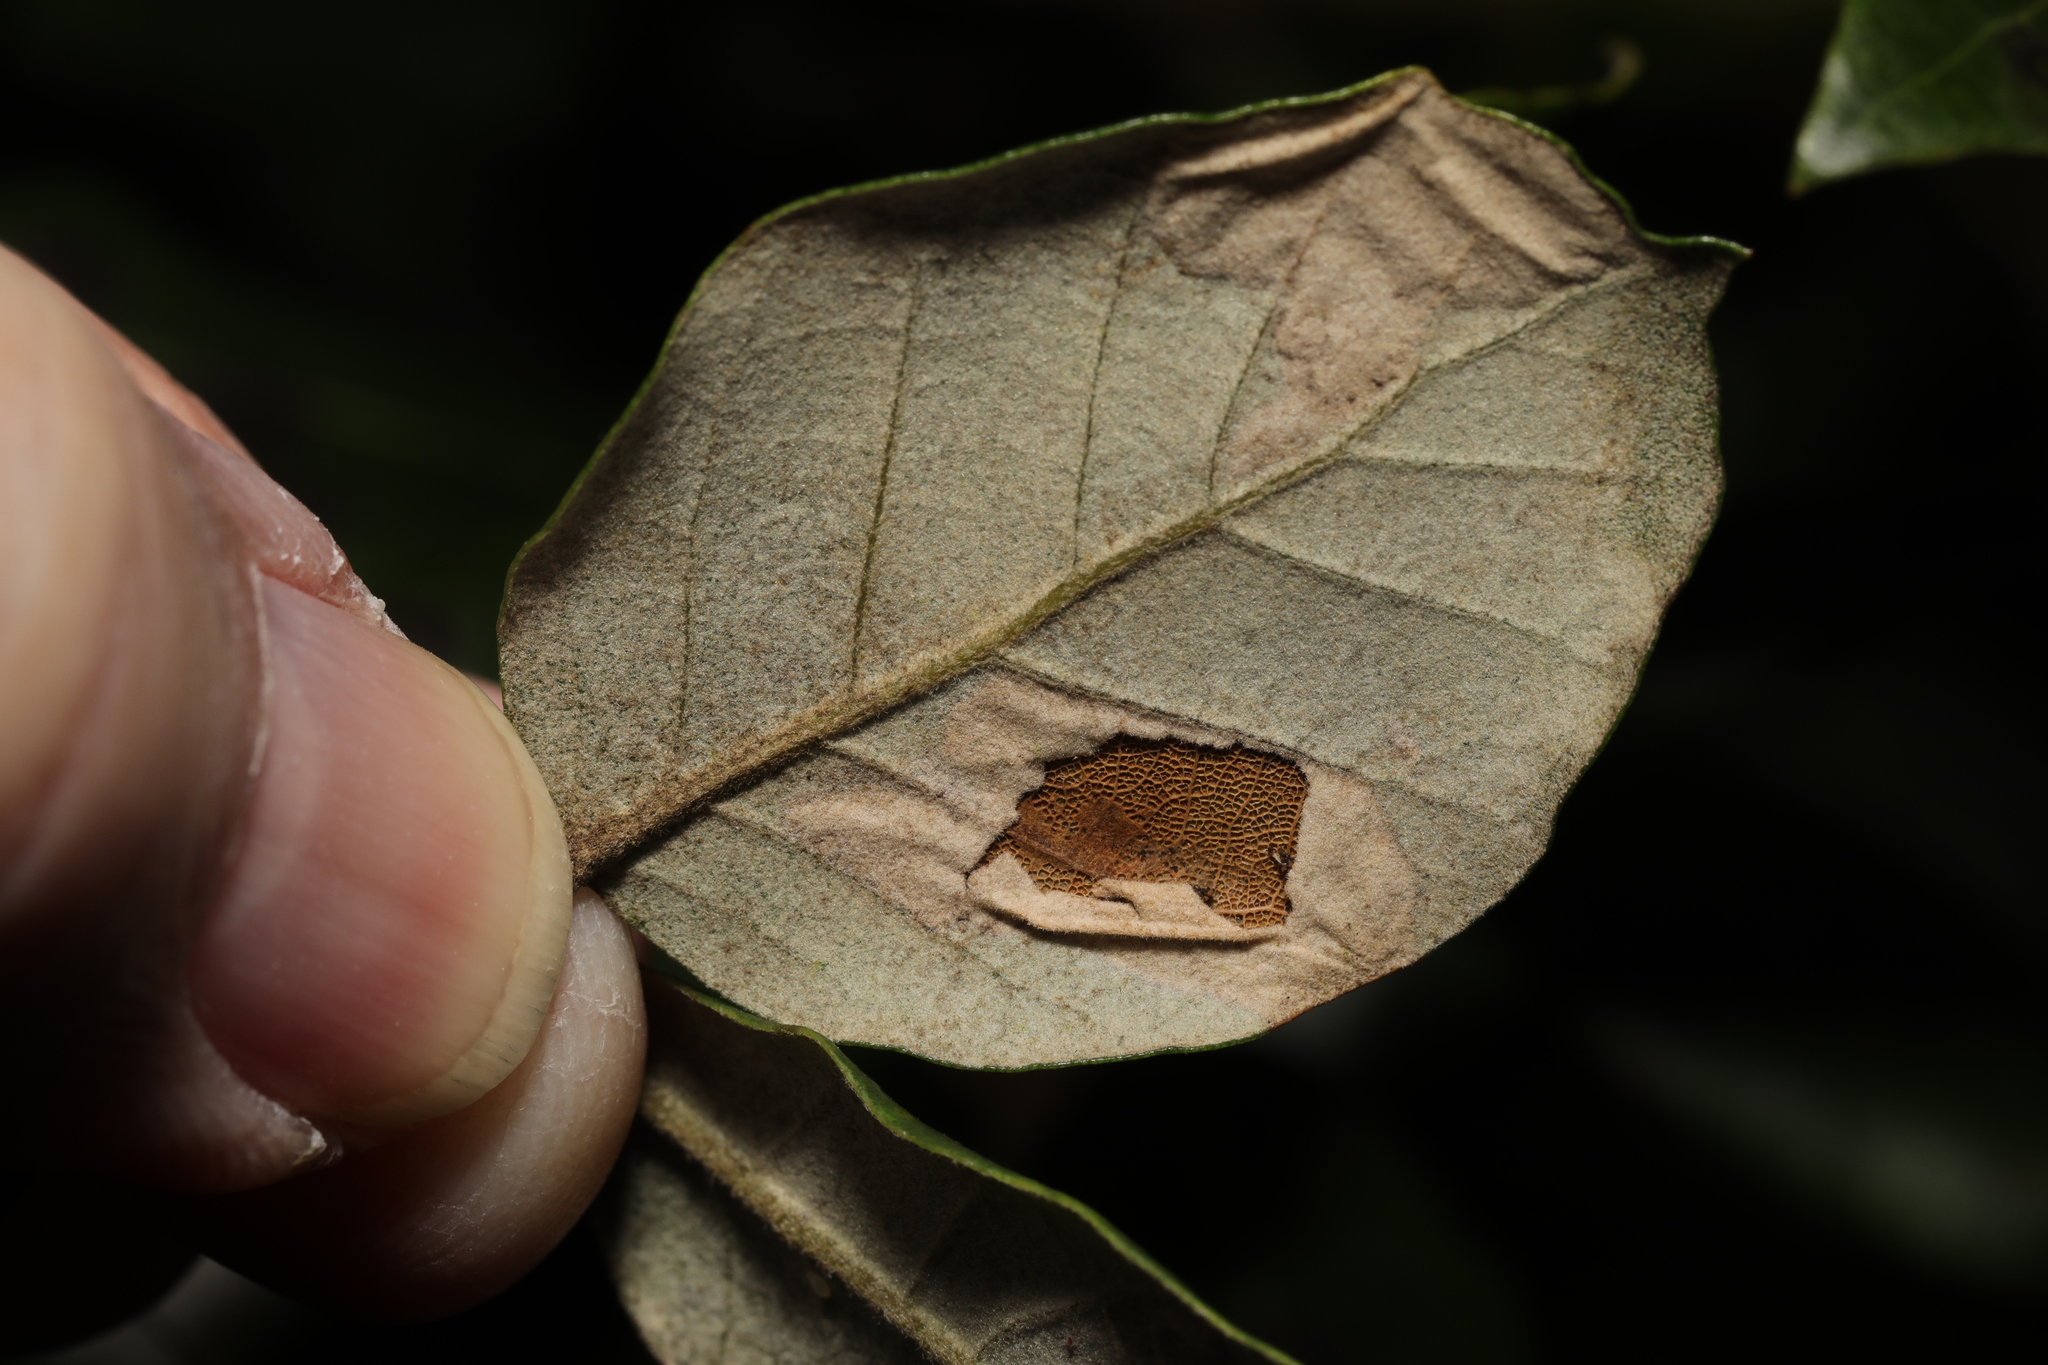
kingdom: Animalia
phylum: Arthropoda
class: Insecta
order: Lepidoptera
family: Gracillariidae
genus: Phyllonorycter
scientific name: Phyllonorycter messaniella
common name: Garden midget
